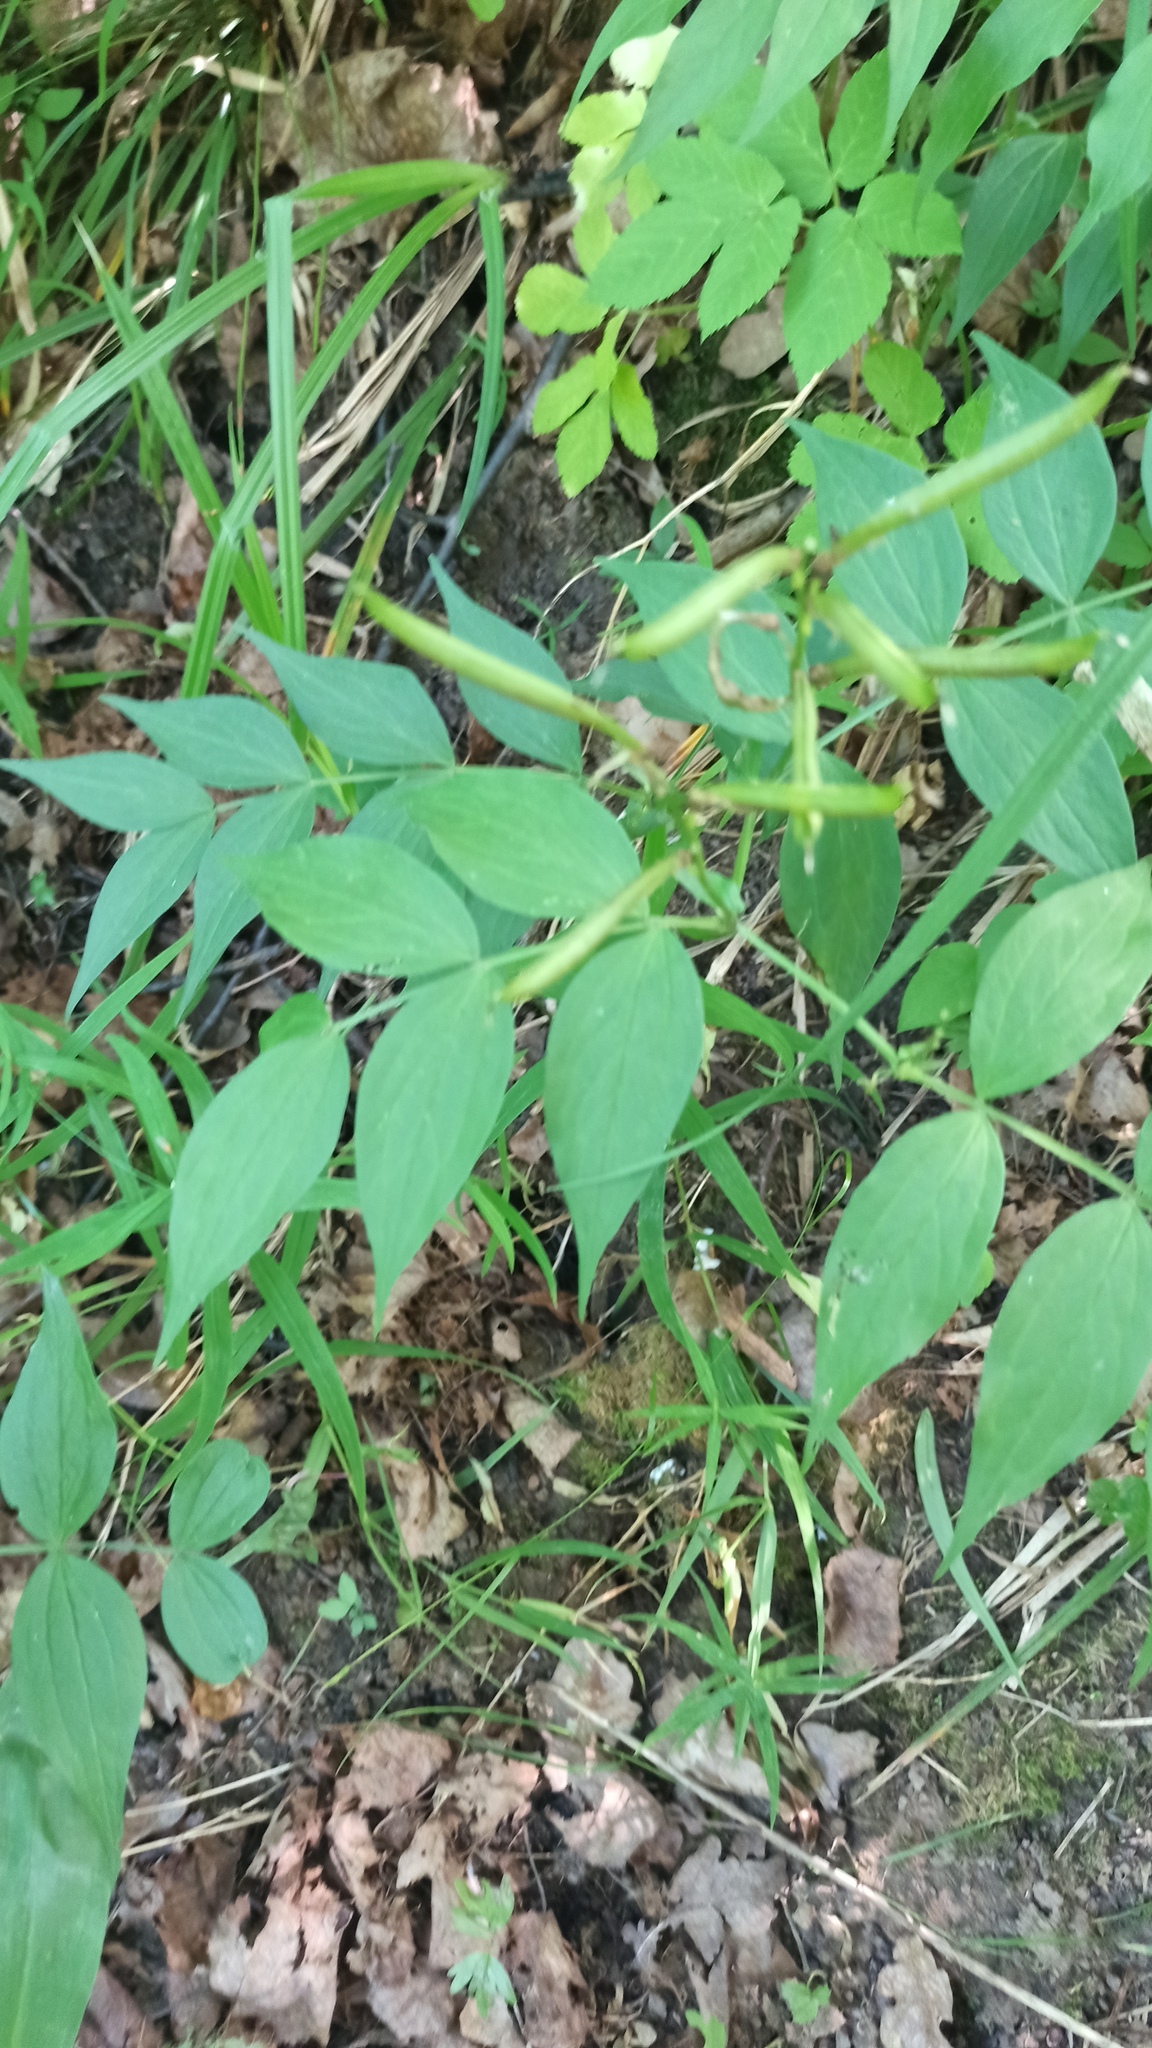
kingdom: Plantae
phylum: Tracheophyta
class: Magnoliopsida
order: Fabales
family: Fabaceae
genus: Lathyrus
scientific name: Lathyrus vernus
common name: Spring pea
